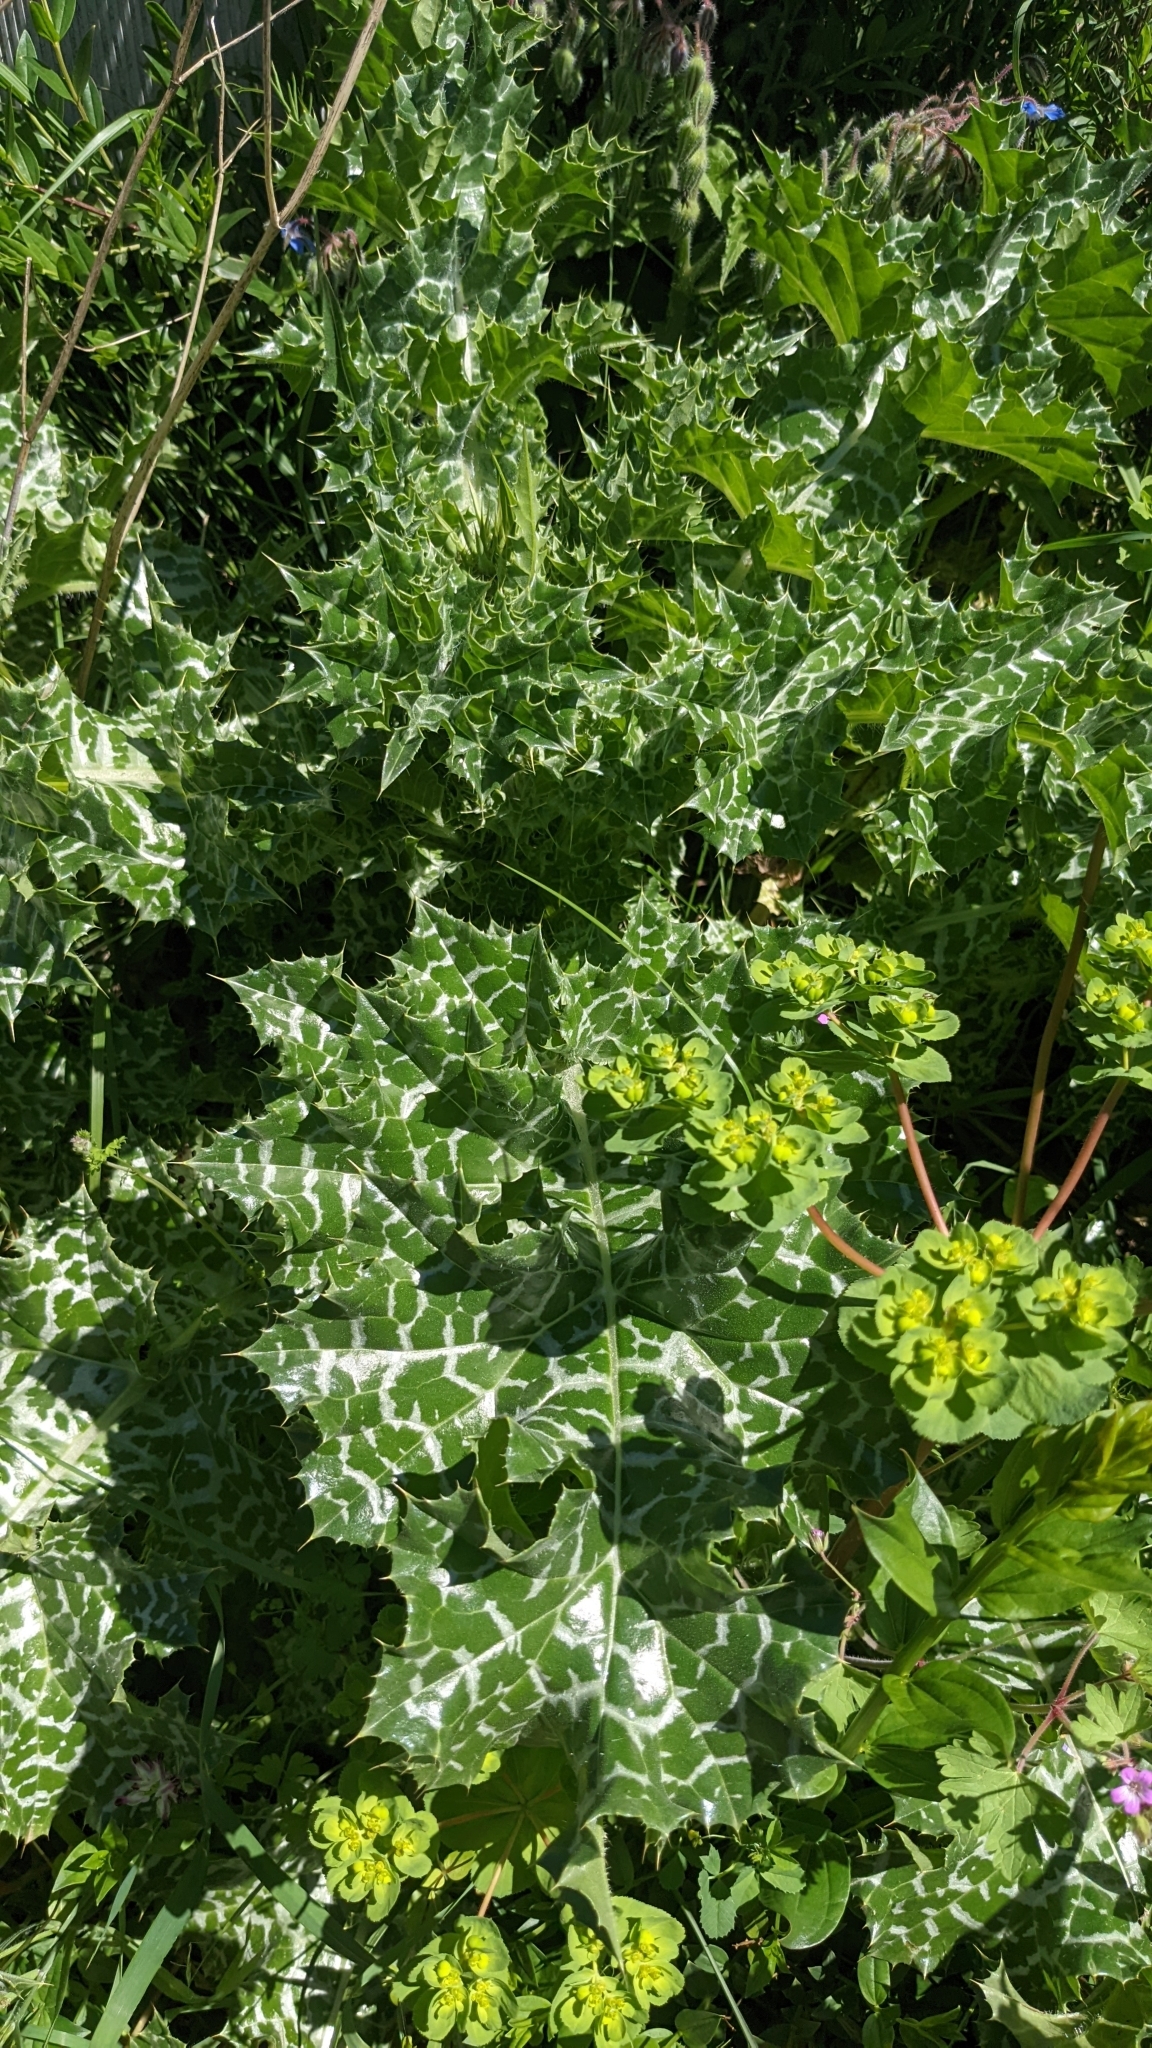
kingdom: Plantae
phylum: Tracheophyta
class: Magnoliopsida
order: Asterales
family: Asteraceae
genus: Silybum
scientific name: Silybum marianum
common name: Milk thistle
